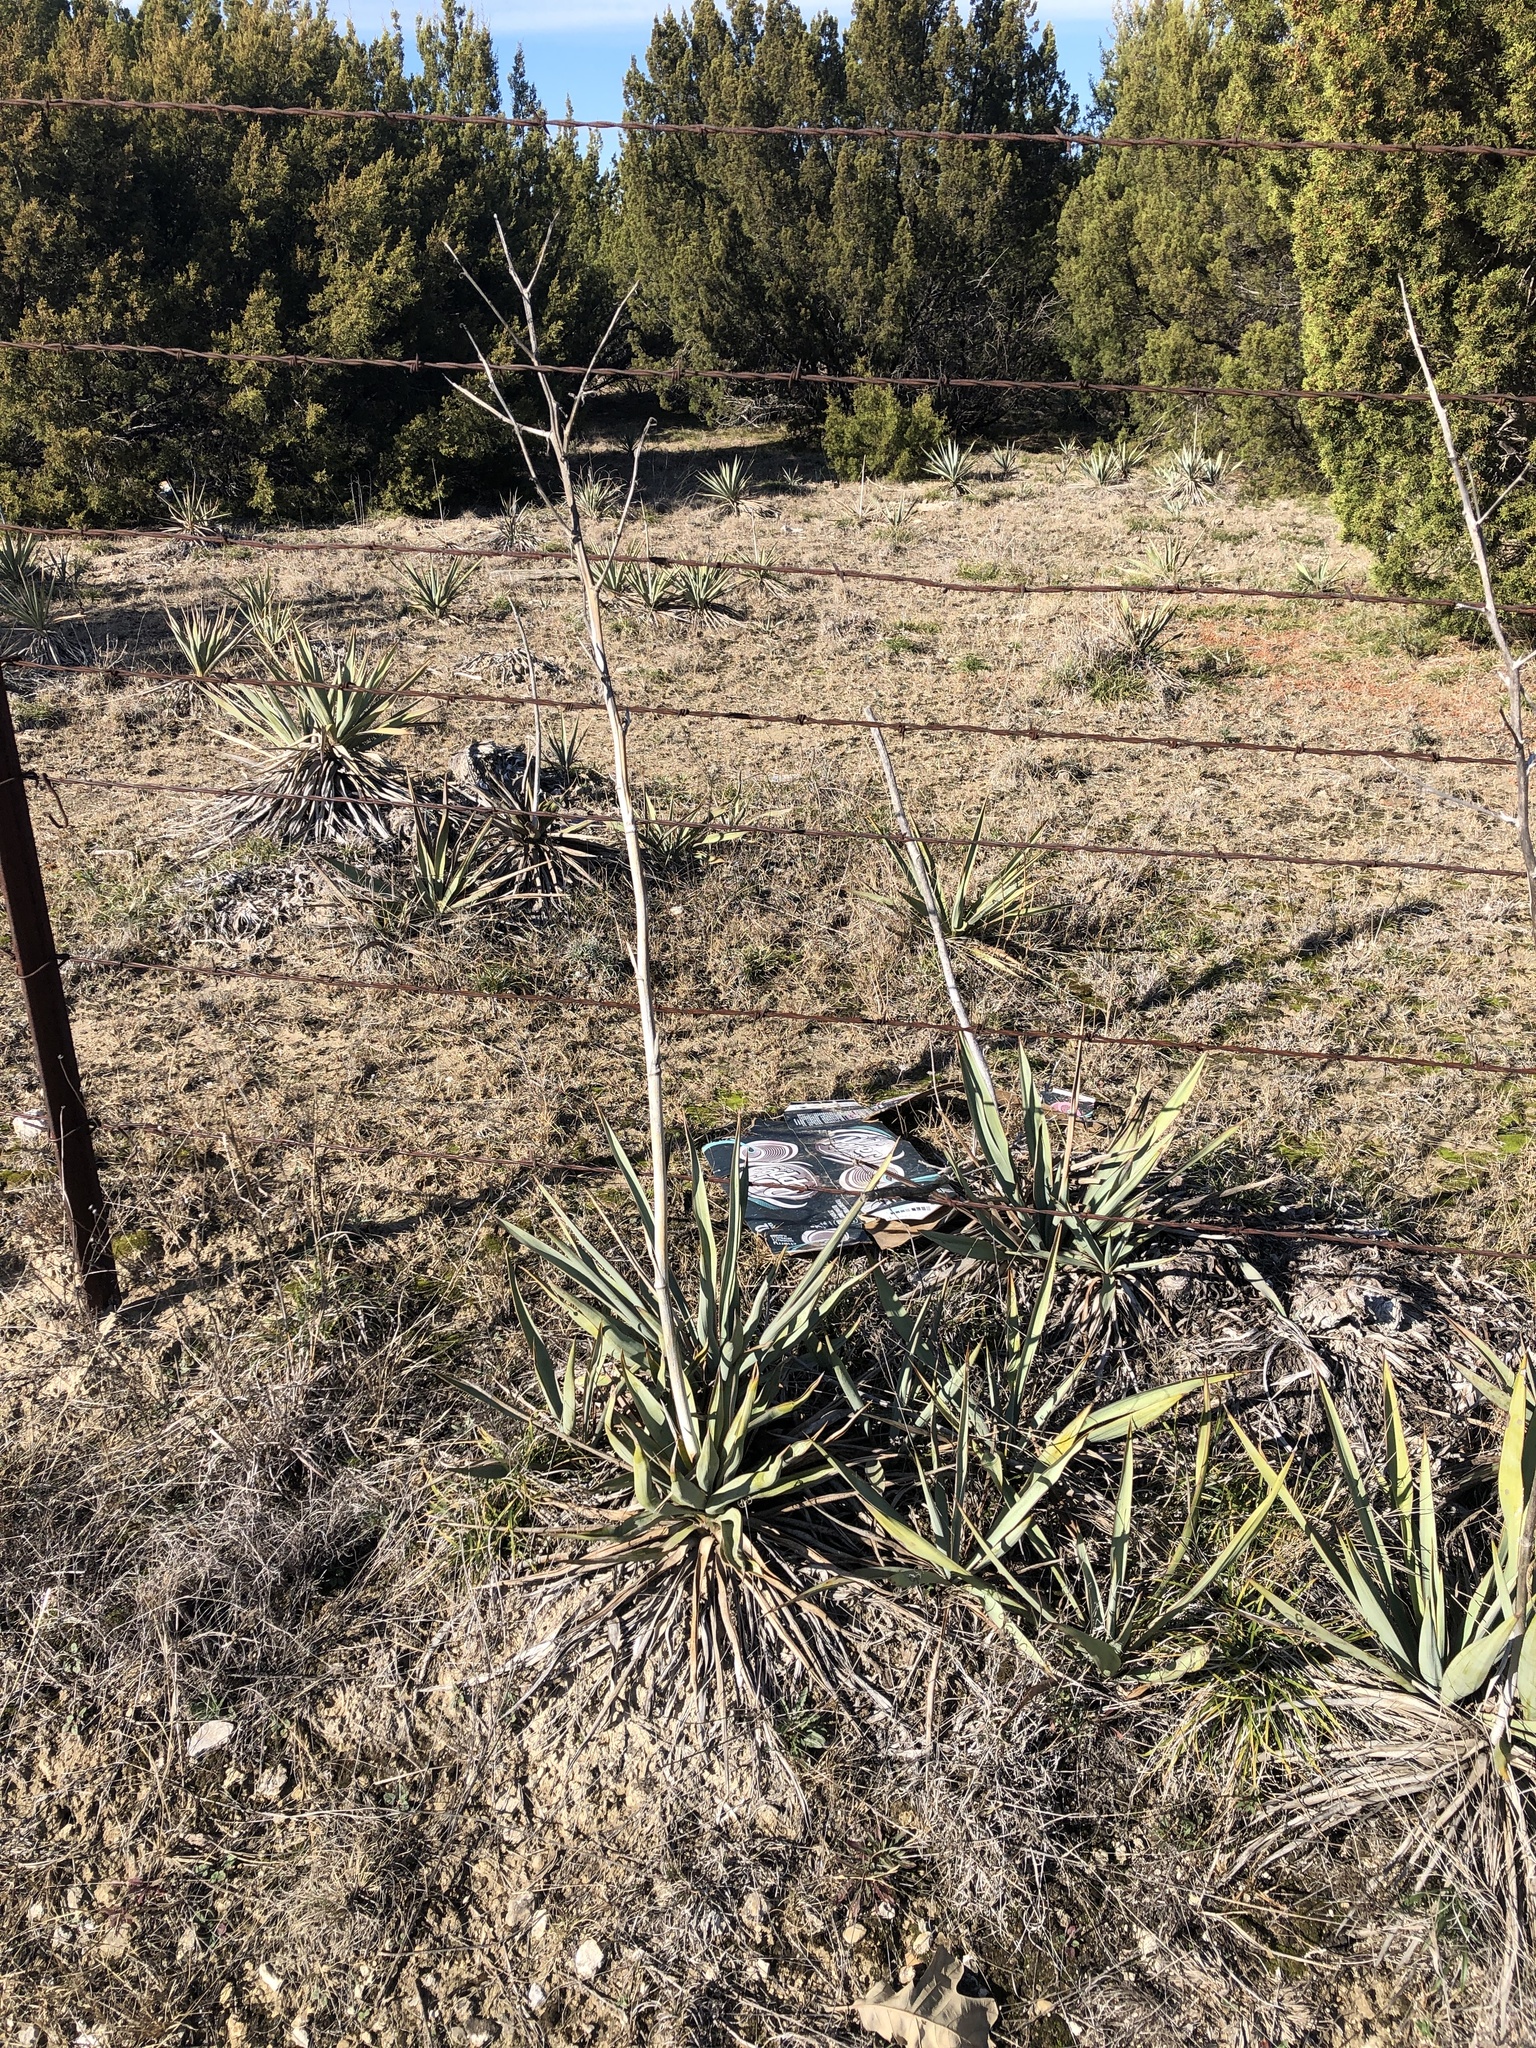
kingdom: Plantae
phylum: Tracheophyta
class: Liliopsida
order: Asparagales
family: Asparagaceae
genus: Yucca
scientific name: Yucca pallida
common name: Pale leaf yucca
